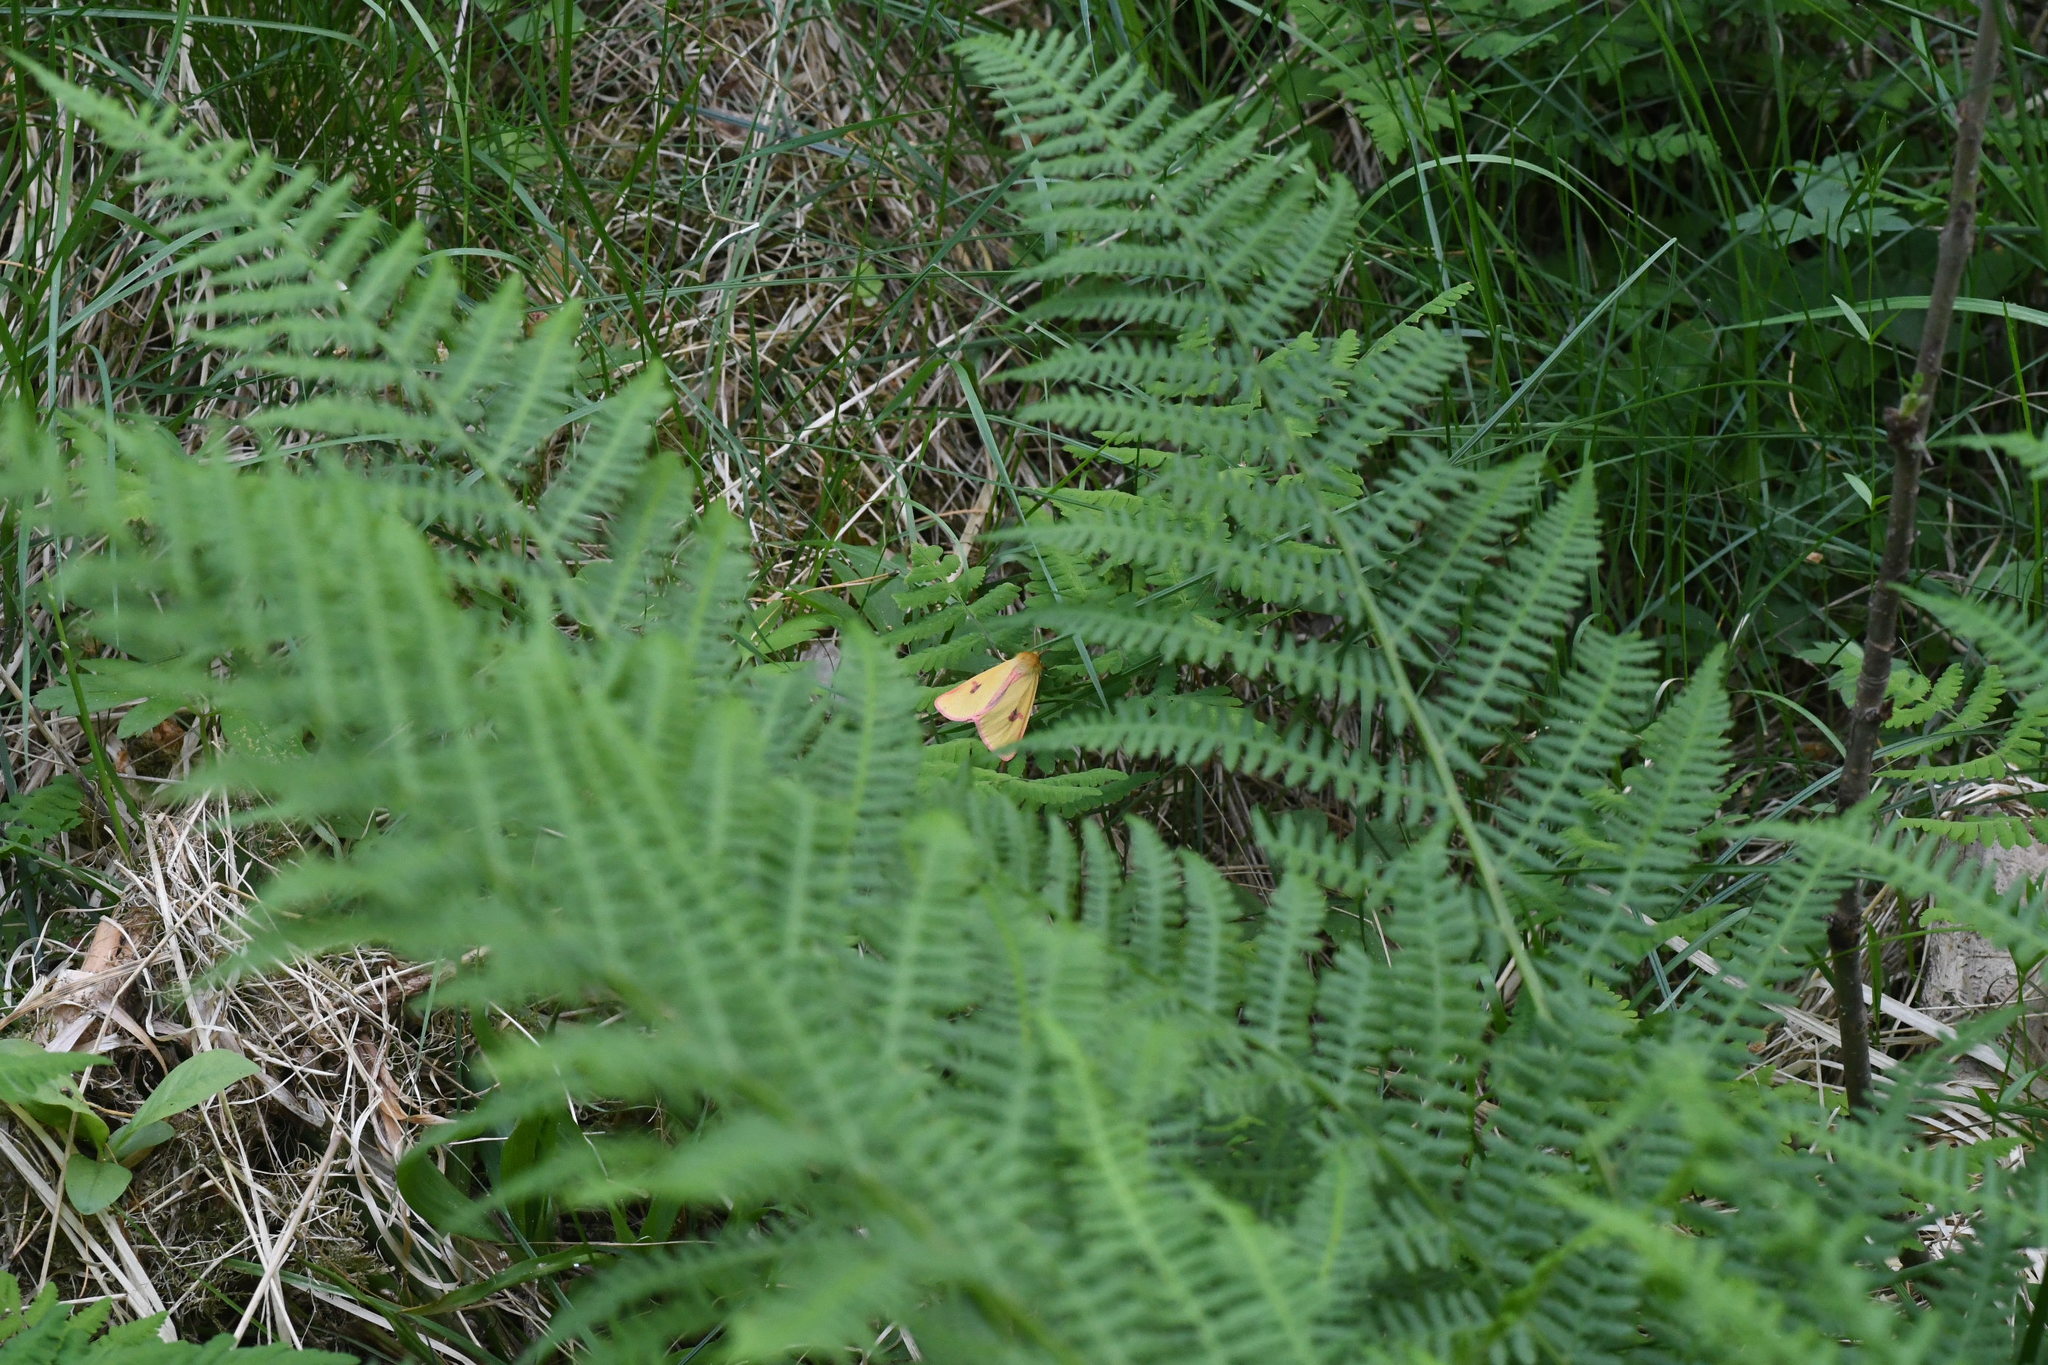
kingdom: Animalia
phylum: Arthropoda
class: Insecta
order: Lepidoptera
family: Erebidae
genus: Diacrisia
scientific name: Diacrisia sannio
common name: Clouded buff
